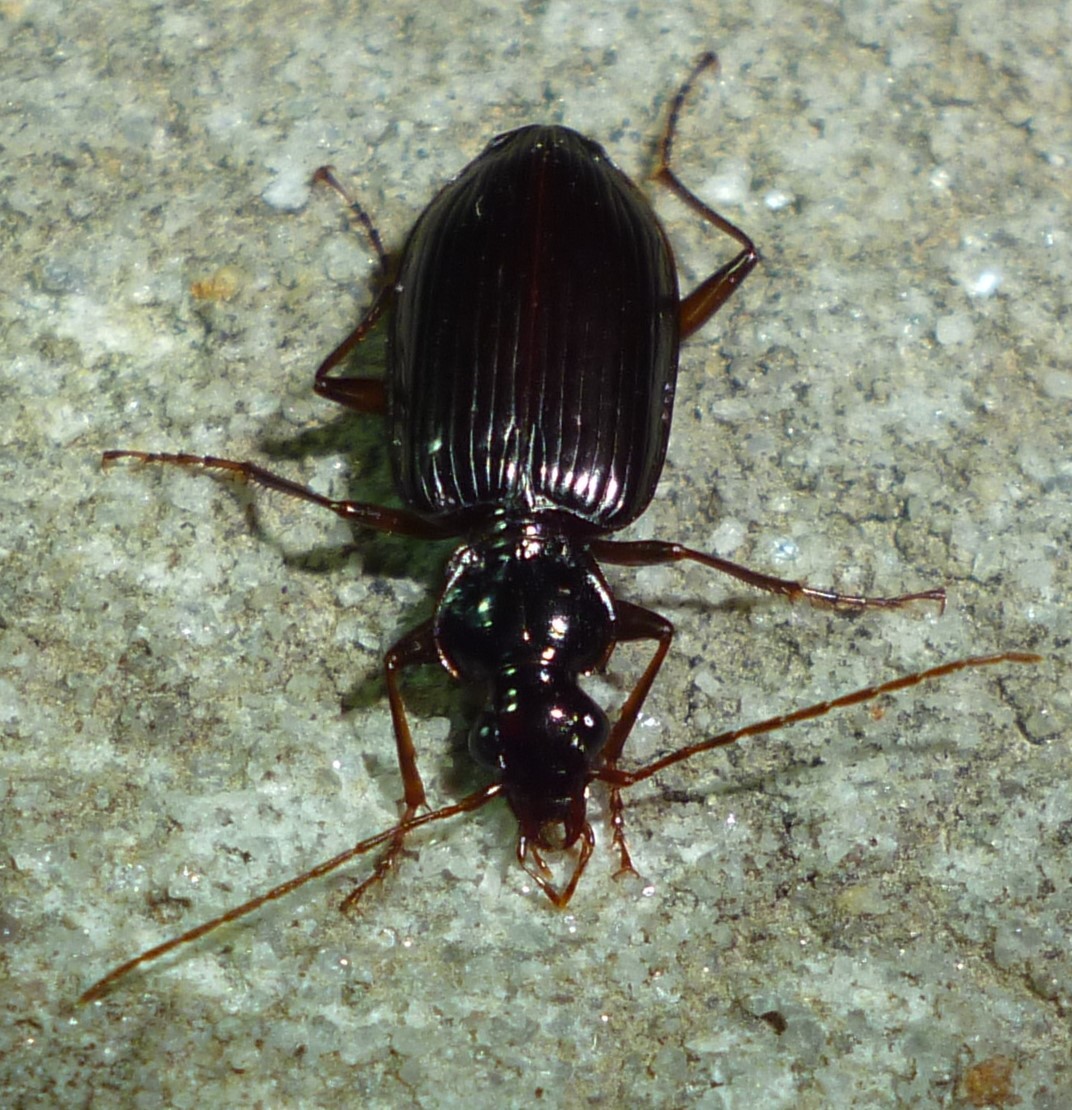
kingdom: Animalia
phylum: Arthropoda
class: Insecta
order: Coleoptera
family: Carabidae
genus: Platynus
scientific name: Platynus cincticollis
